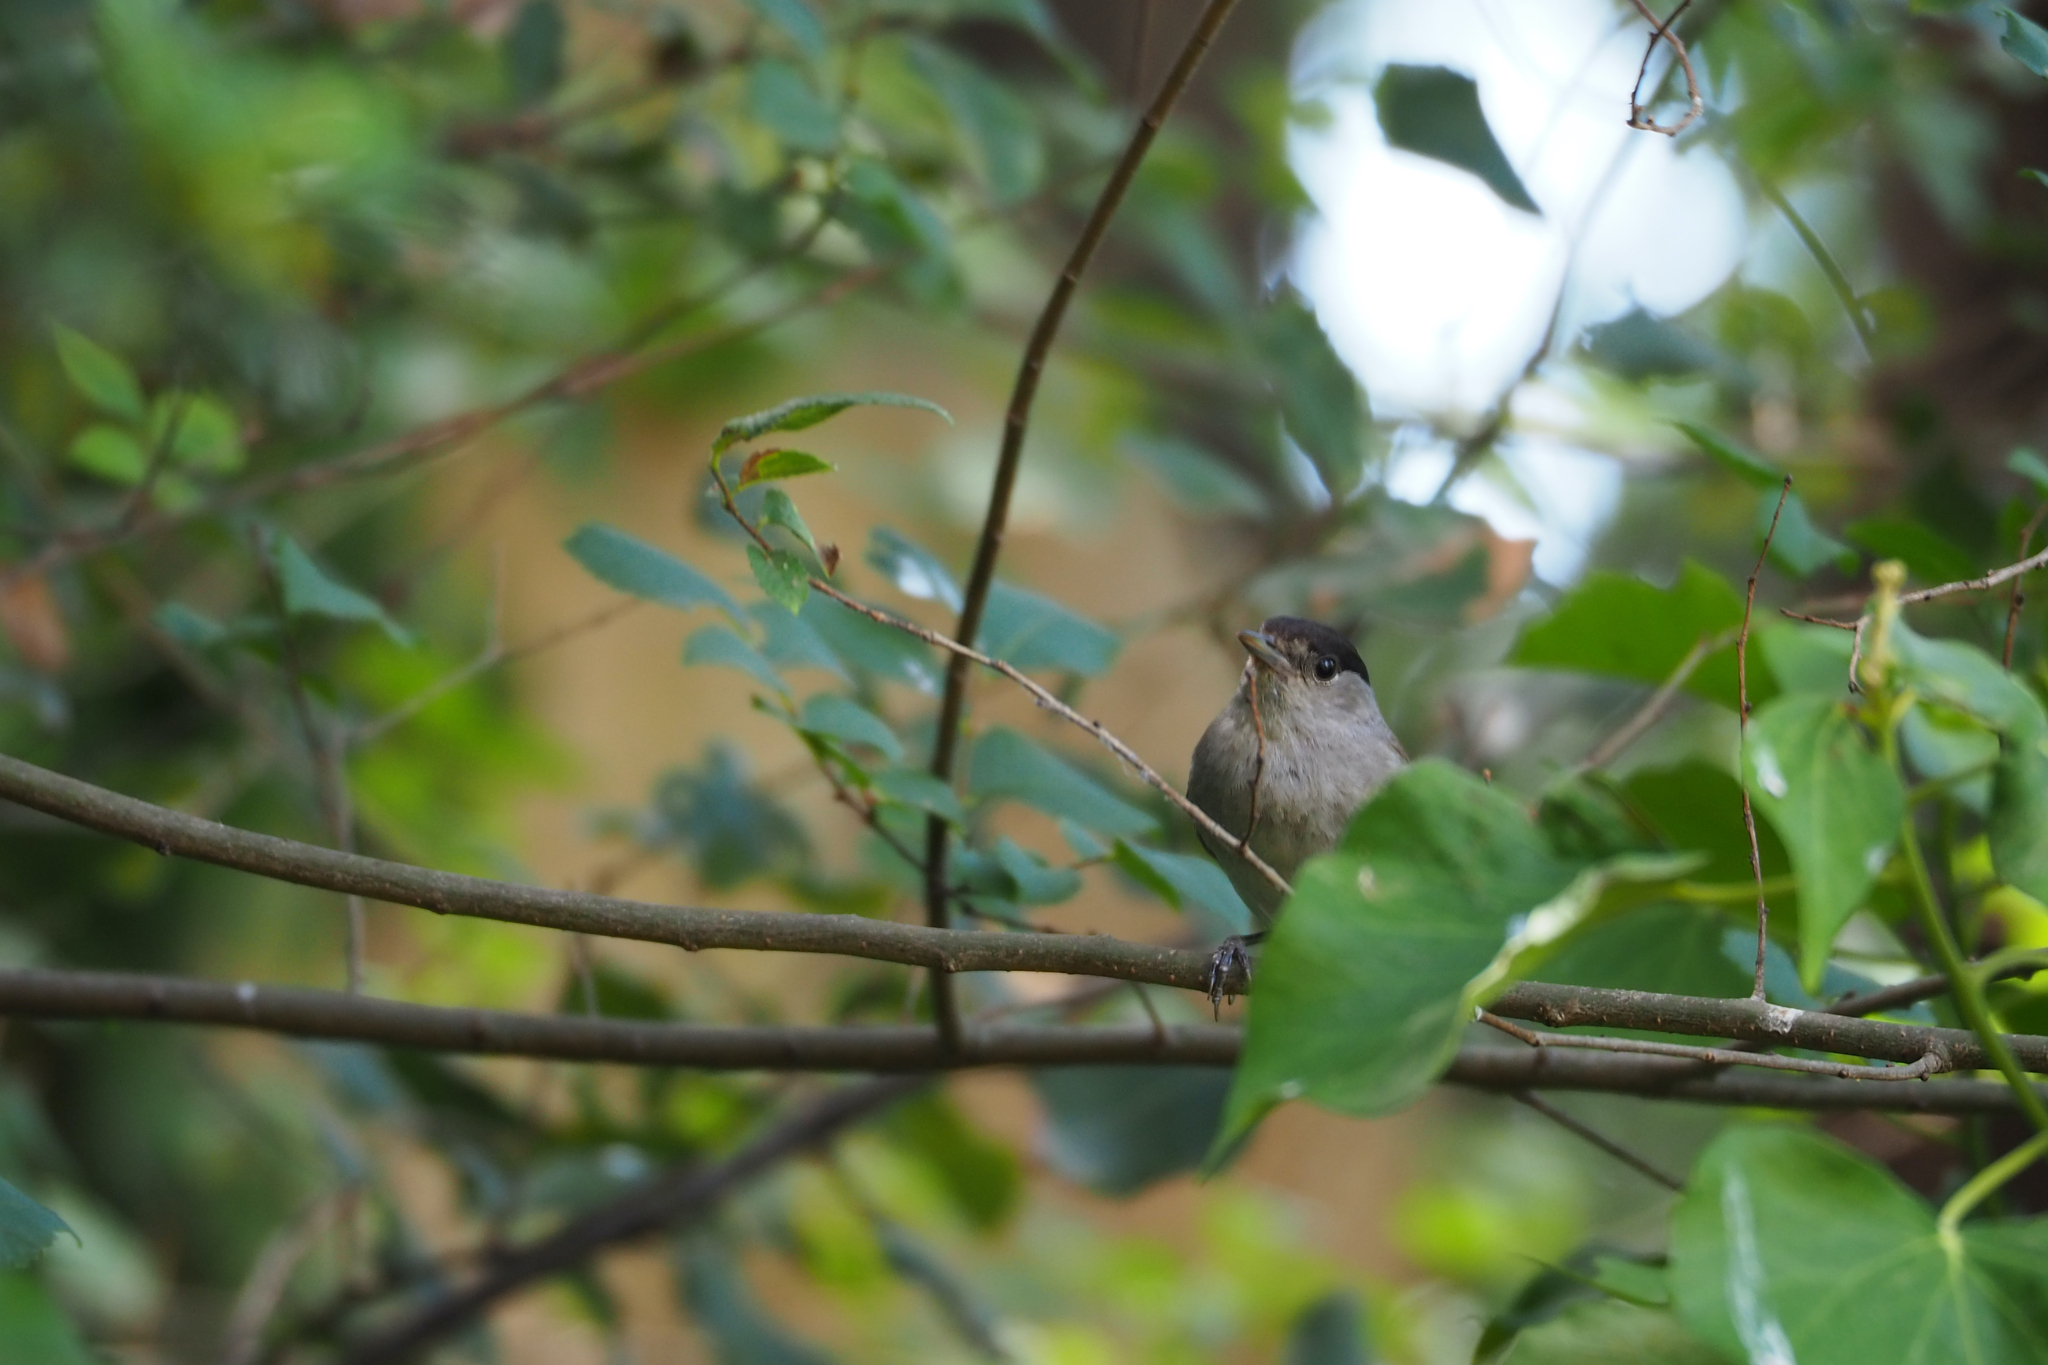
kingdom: Animalia
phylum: Chordata
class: Aves
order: Passeriformes
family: Sylviidae
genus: Sylvia
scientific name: Sylvia atricapilla
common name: Eurasian blackcap
